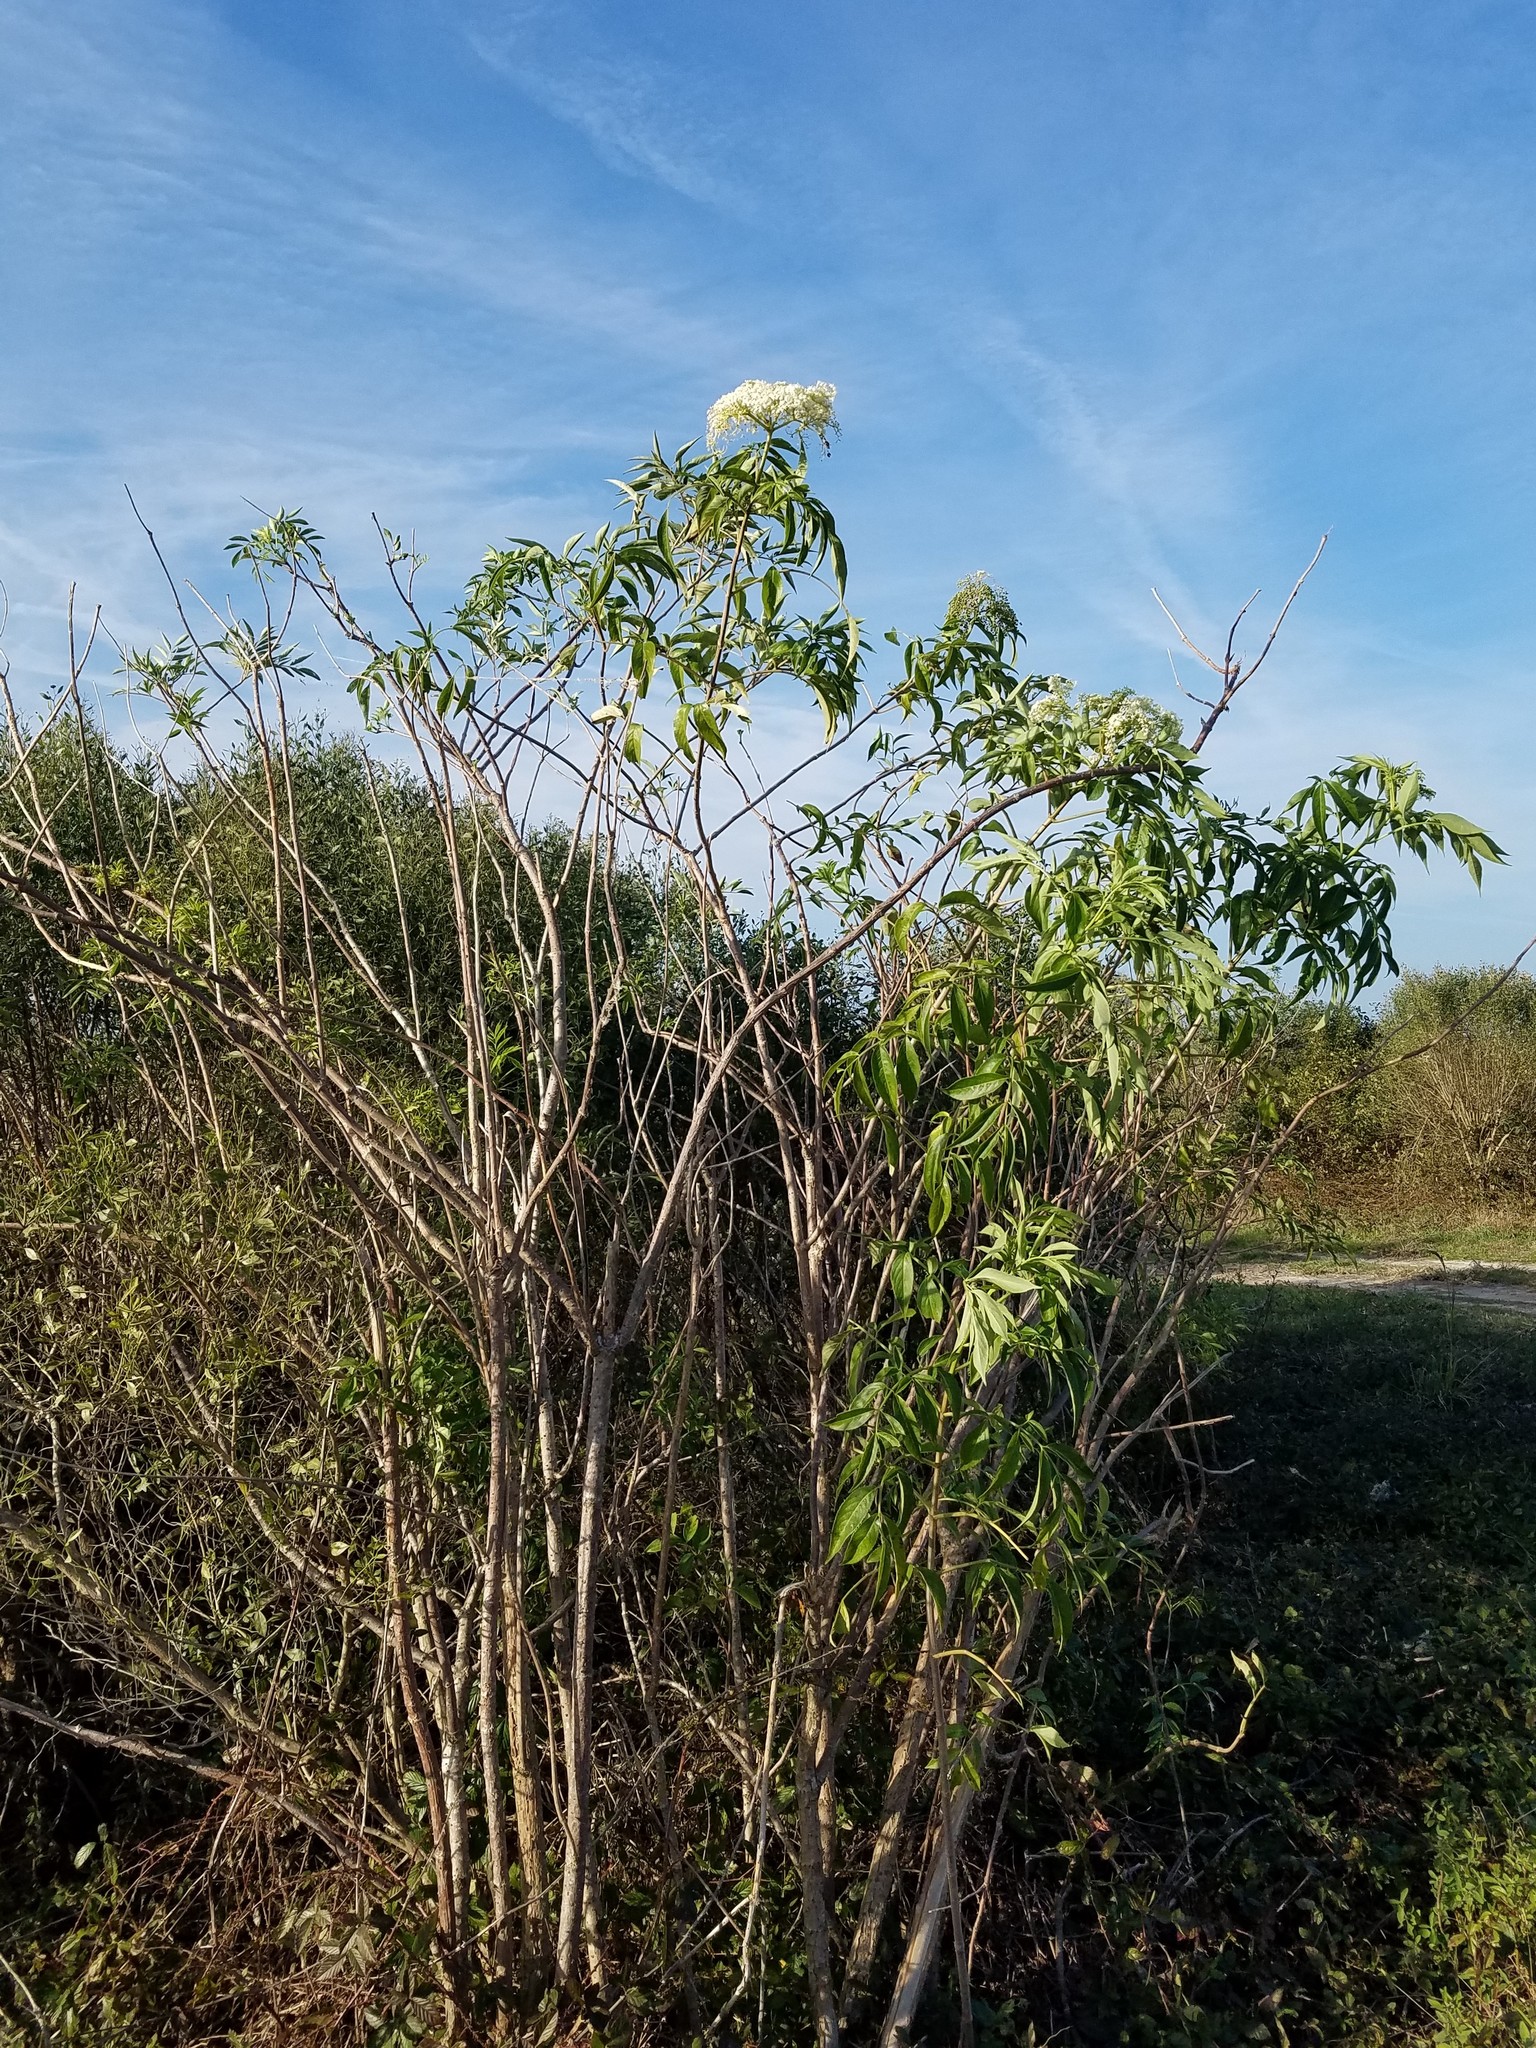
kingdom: Plantae
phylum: Tracheophyta
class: Magnoliopsida
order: Dipsacales
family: Viburnaceae
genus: Sambucus
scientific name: Sambucus canadensis
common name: American elder
